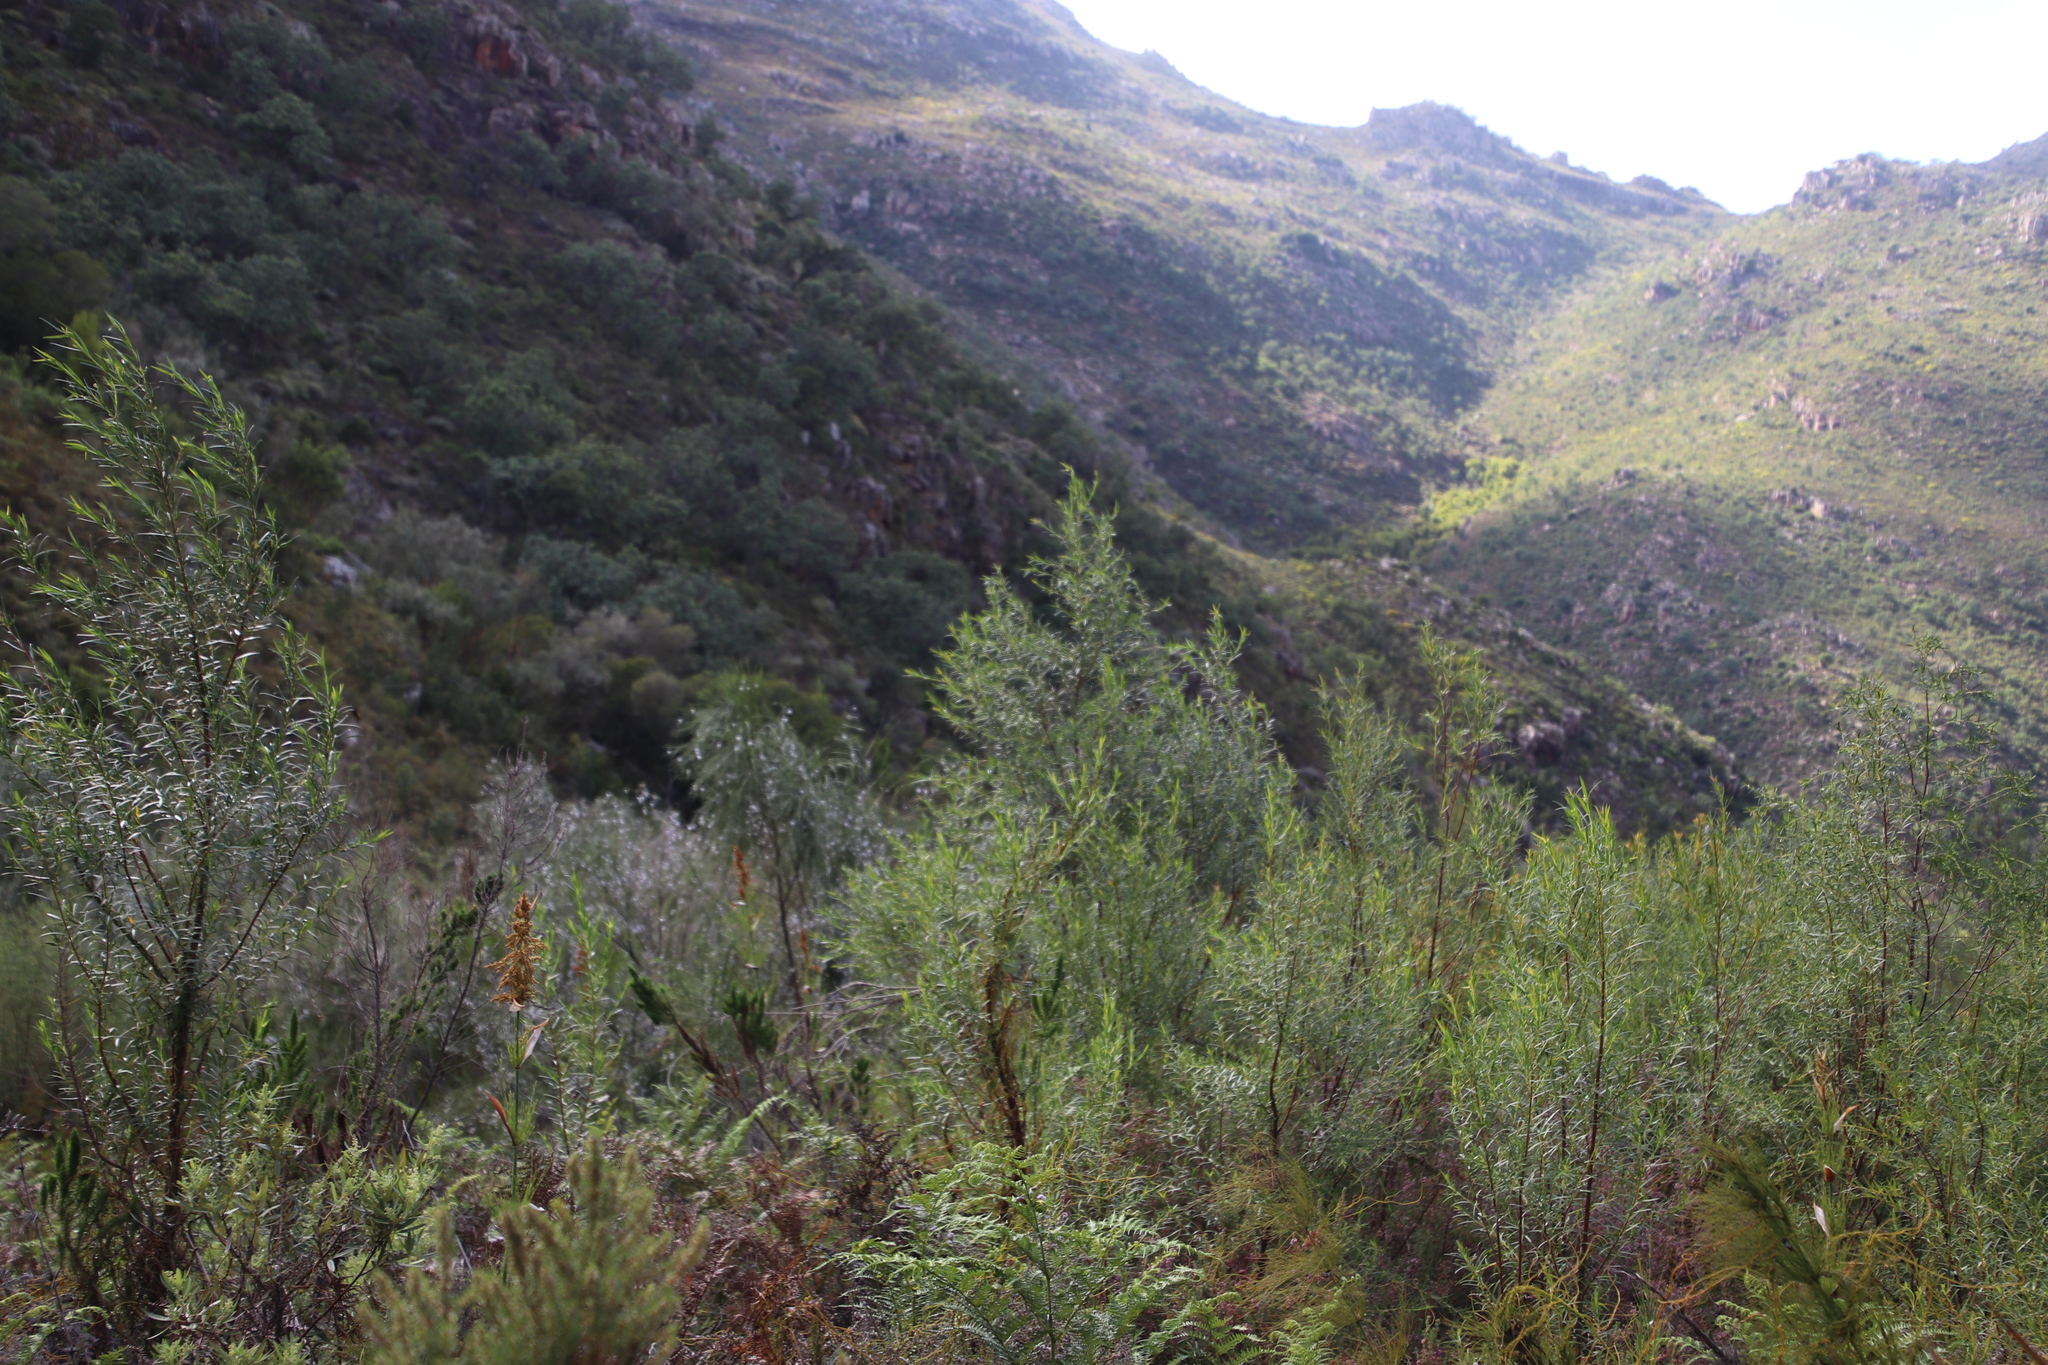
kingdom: Plantae
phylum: Tracheophyta
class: Magnoliopsida
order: Sapindales
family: Rutaceae
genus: Empleurum
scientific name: Empleurum unicapsulare
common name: False buchu
